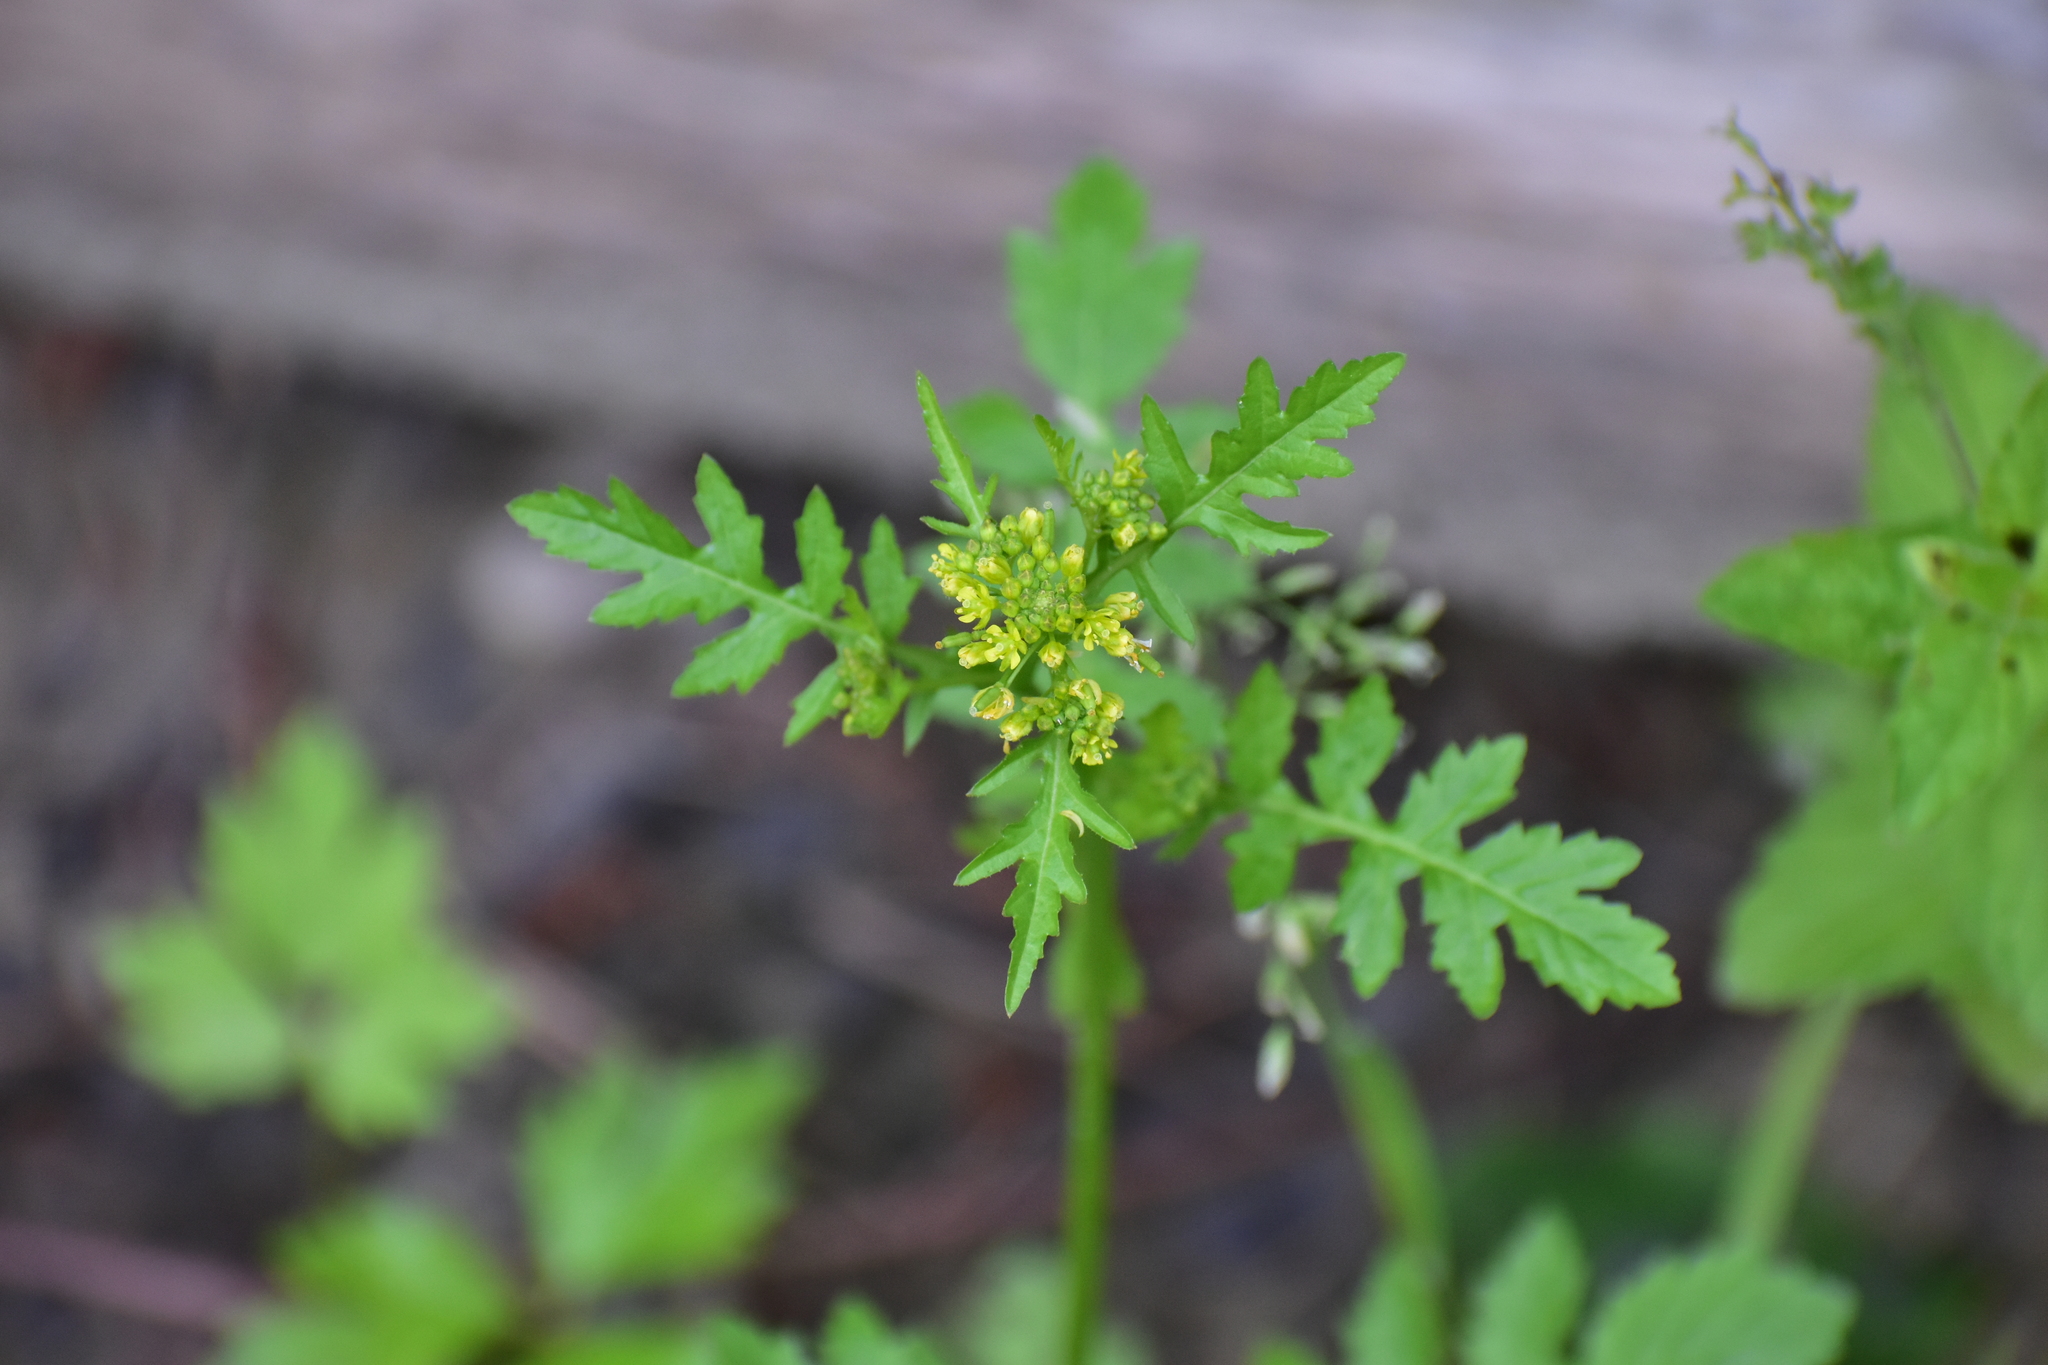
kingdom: Plantae
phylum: Tracheophyta
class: Magnoliopsida
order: Brassicales
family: Brassicaceae
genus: Rorippa
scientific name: Rorippa palustris
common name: Marsh yellow-cress
